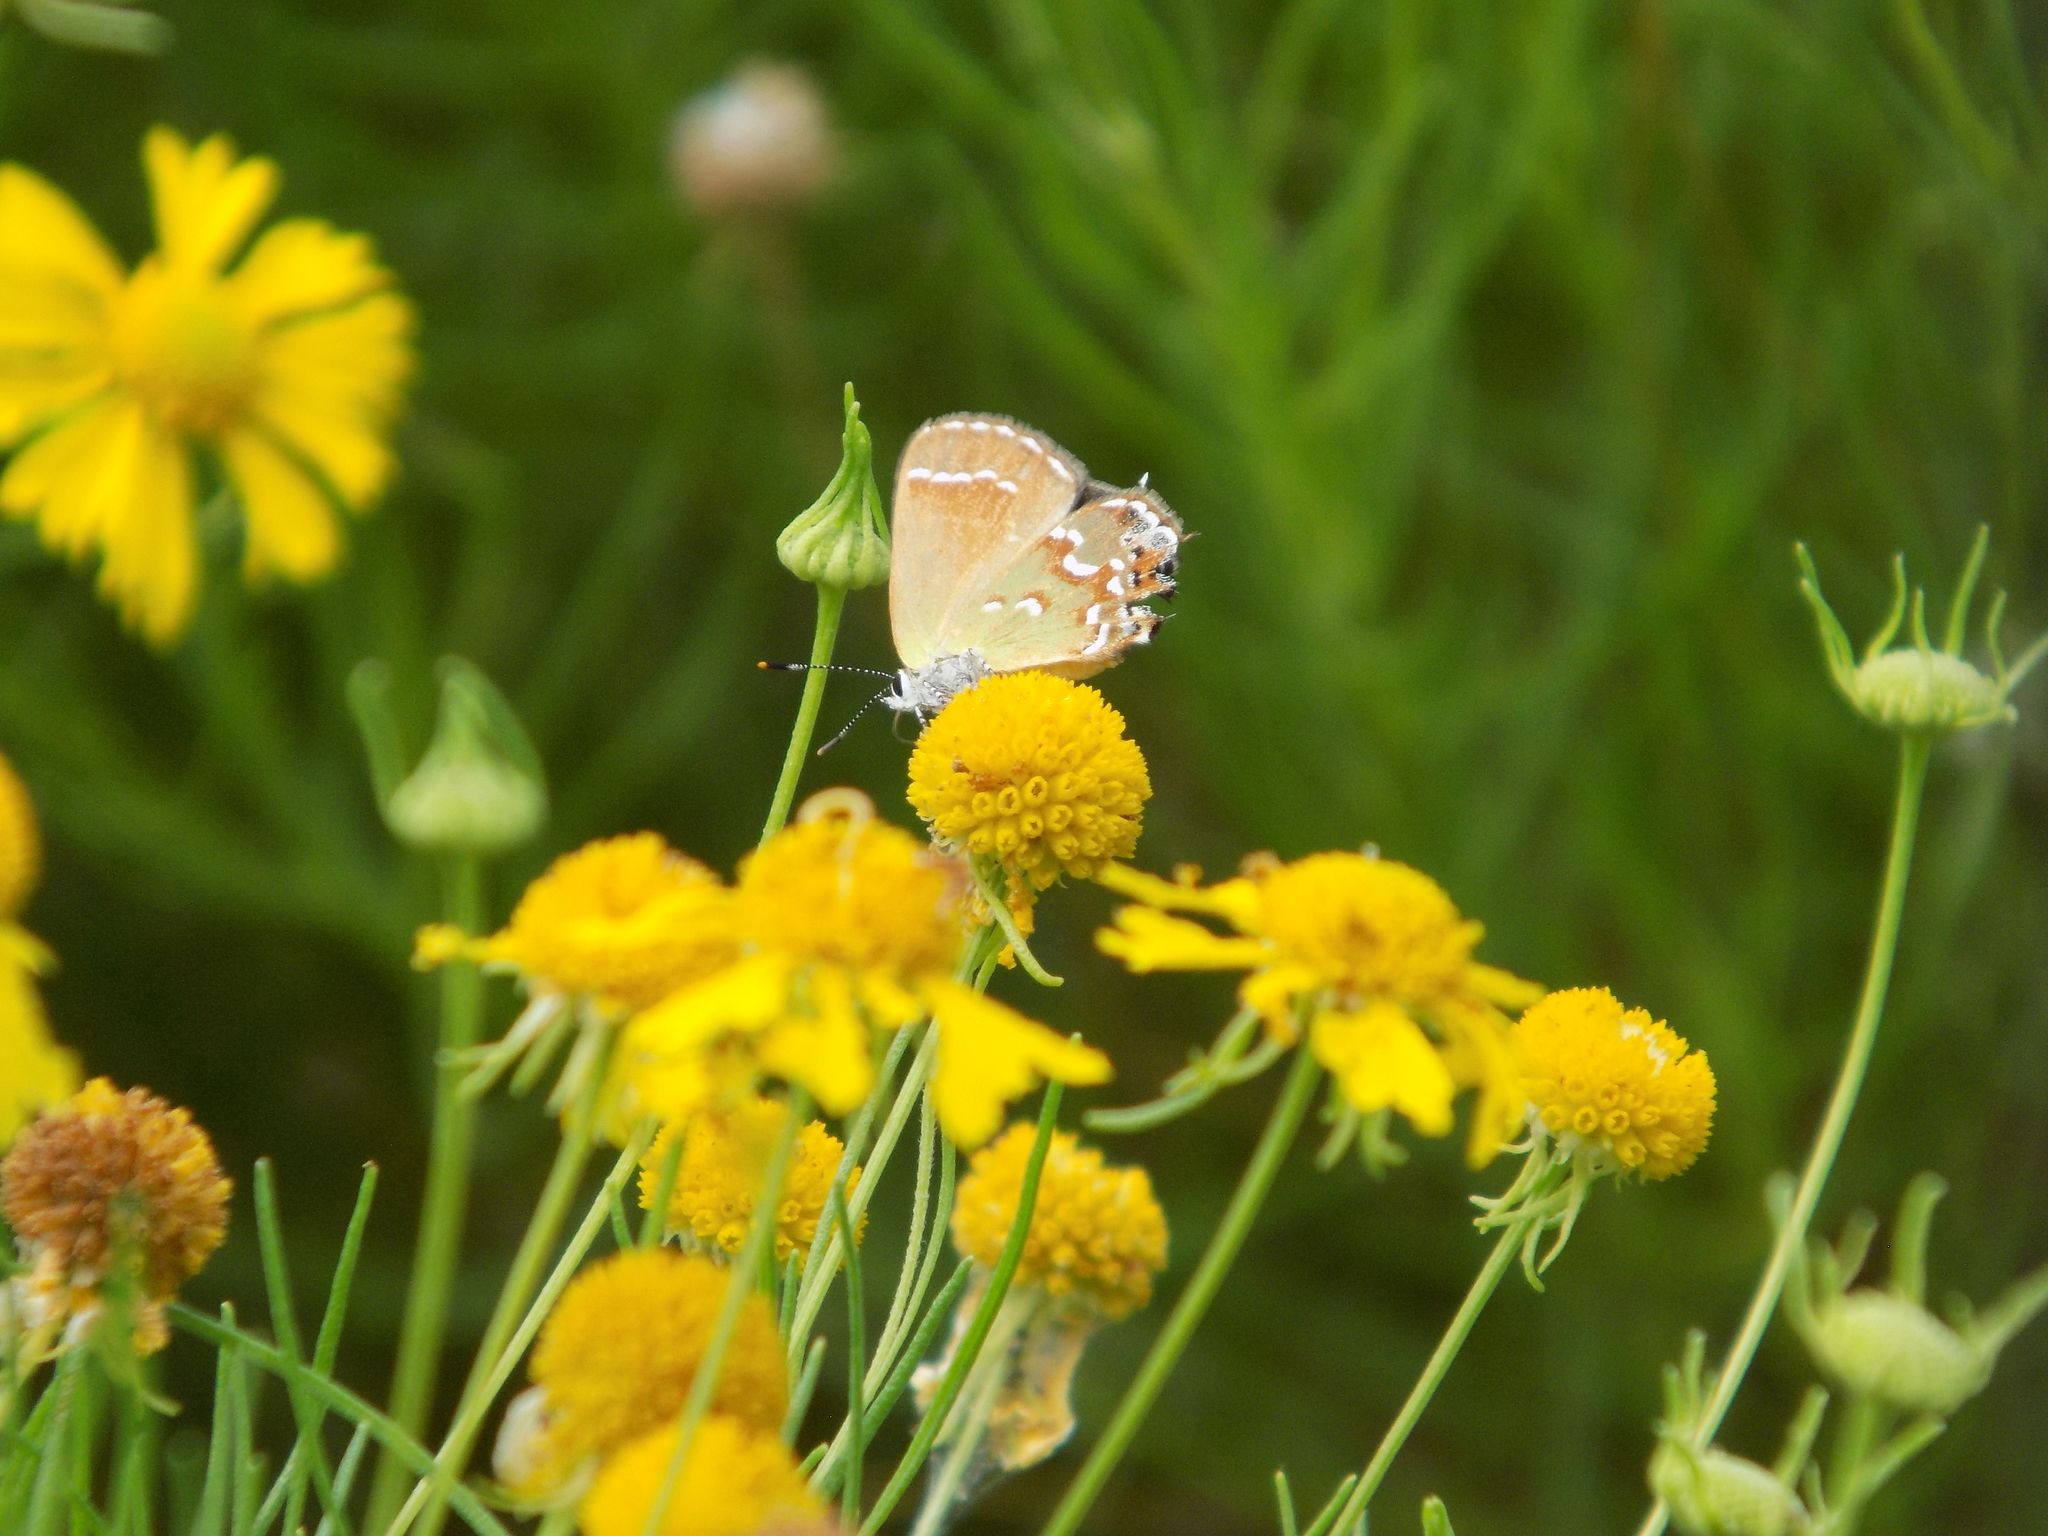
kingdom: Animalia
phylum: Arthropoda
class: Insecta
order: Lepidoptera
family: Lycaenidae
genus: Mitoura
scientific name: Mitoura gryneus
